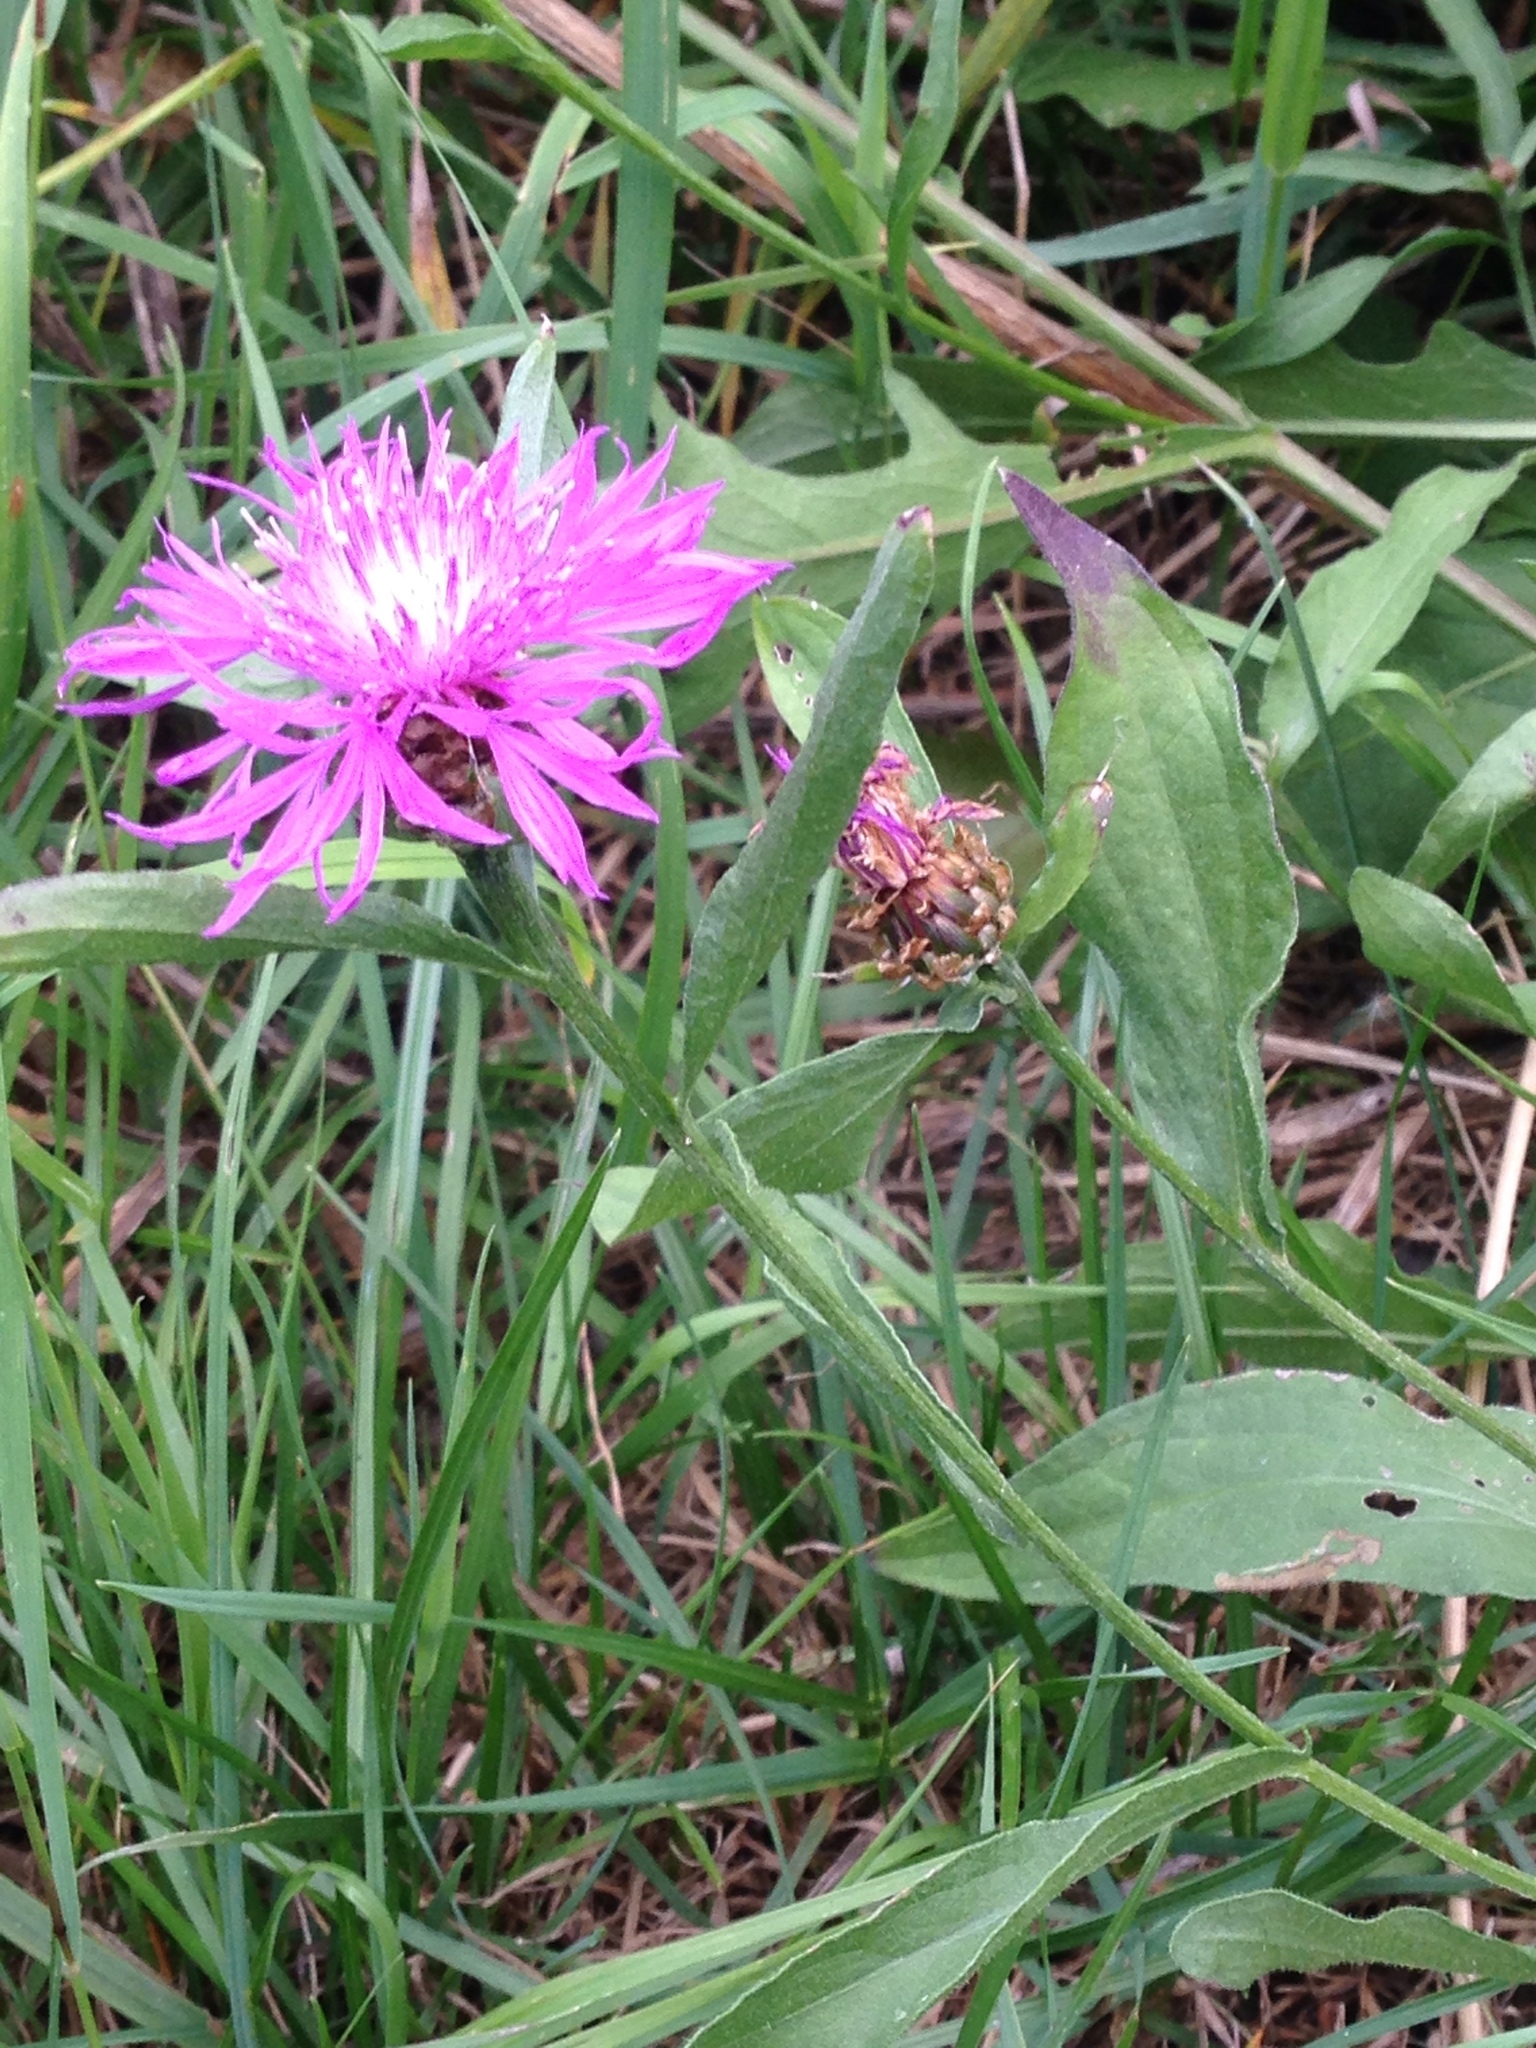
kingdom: Plantae
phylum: Tracheophyta
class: Magnoliopsida
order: Asterales
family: Asteraceae
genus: Centaurea
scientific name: Centaurea jacea
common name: Brown knapweed
